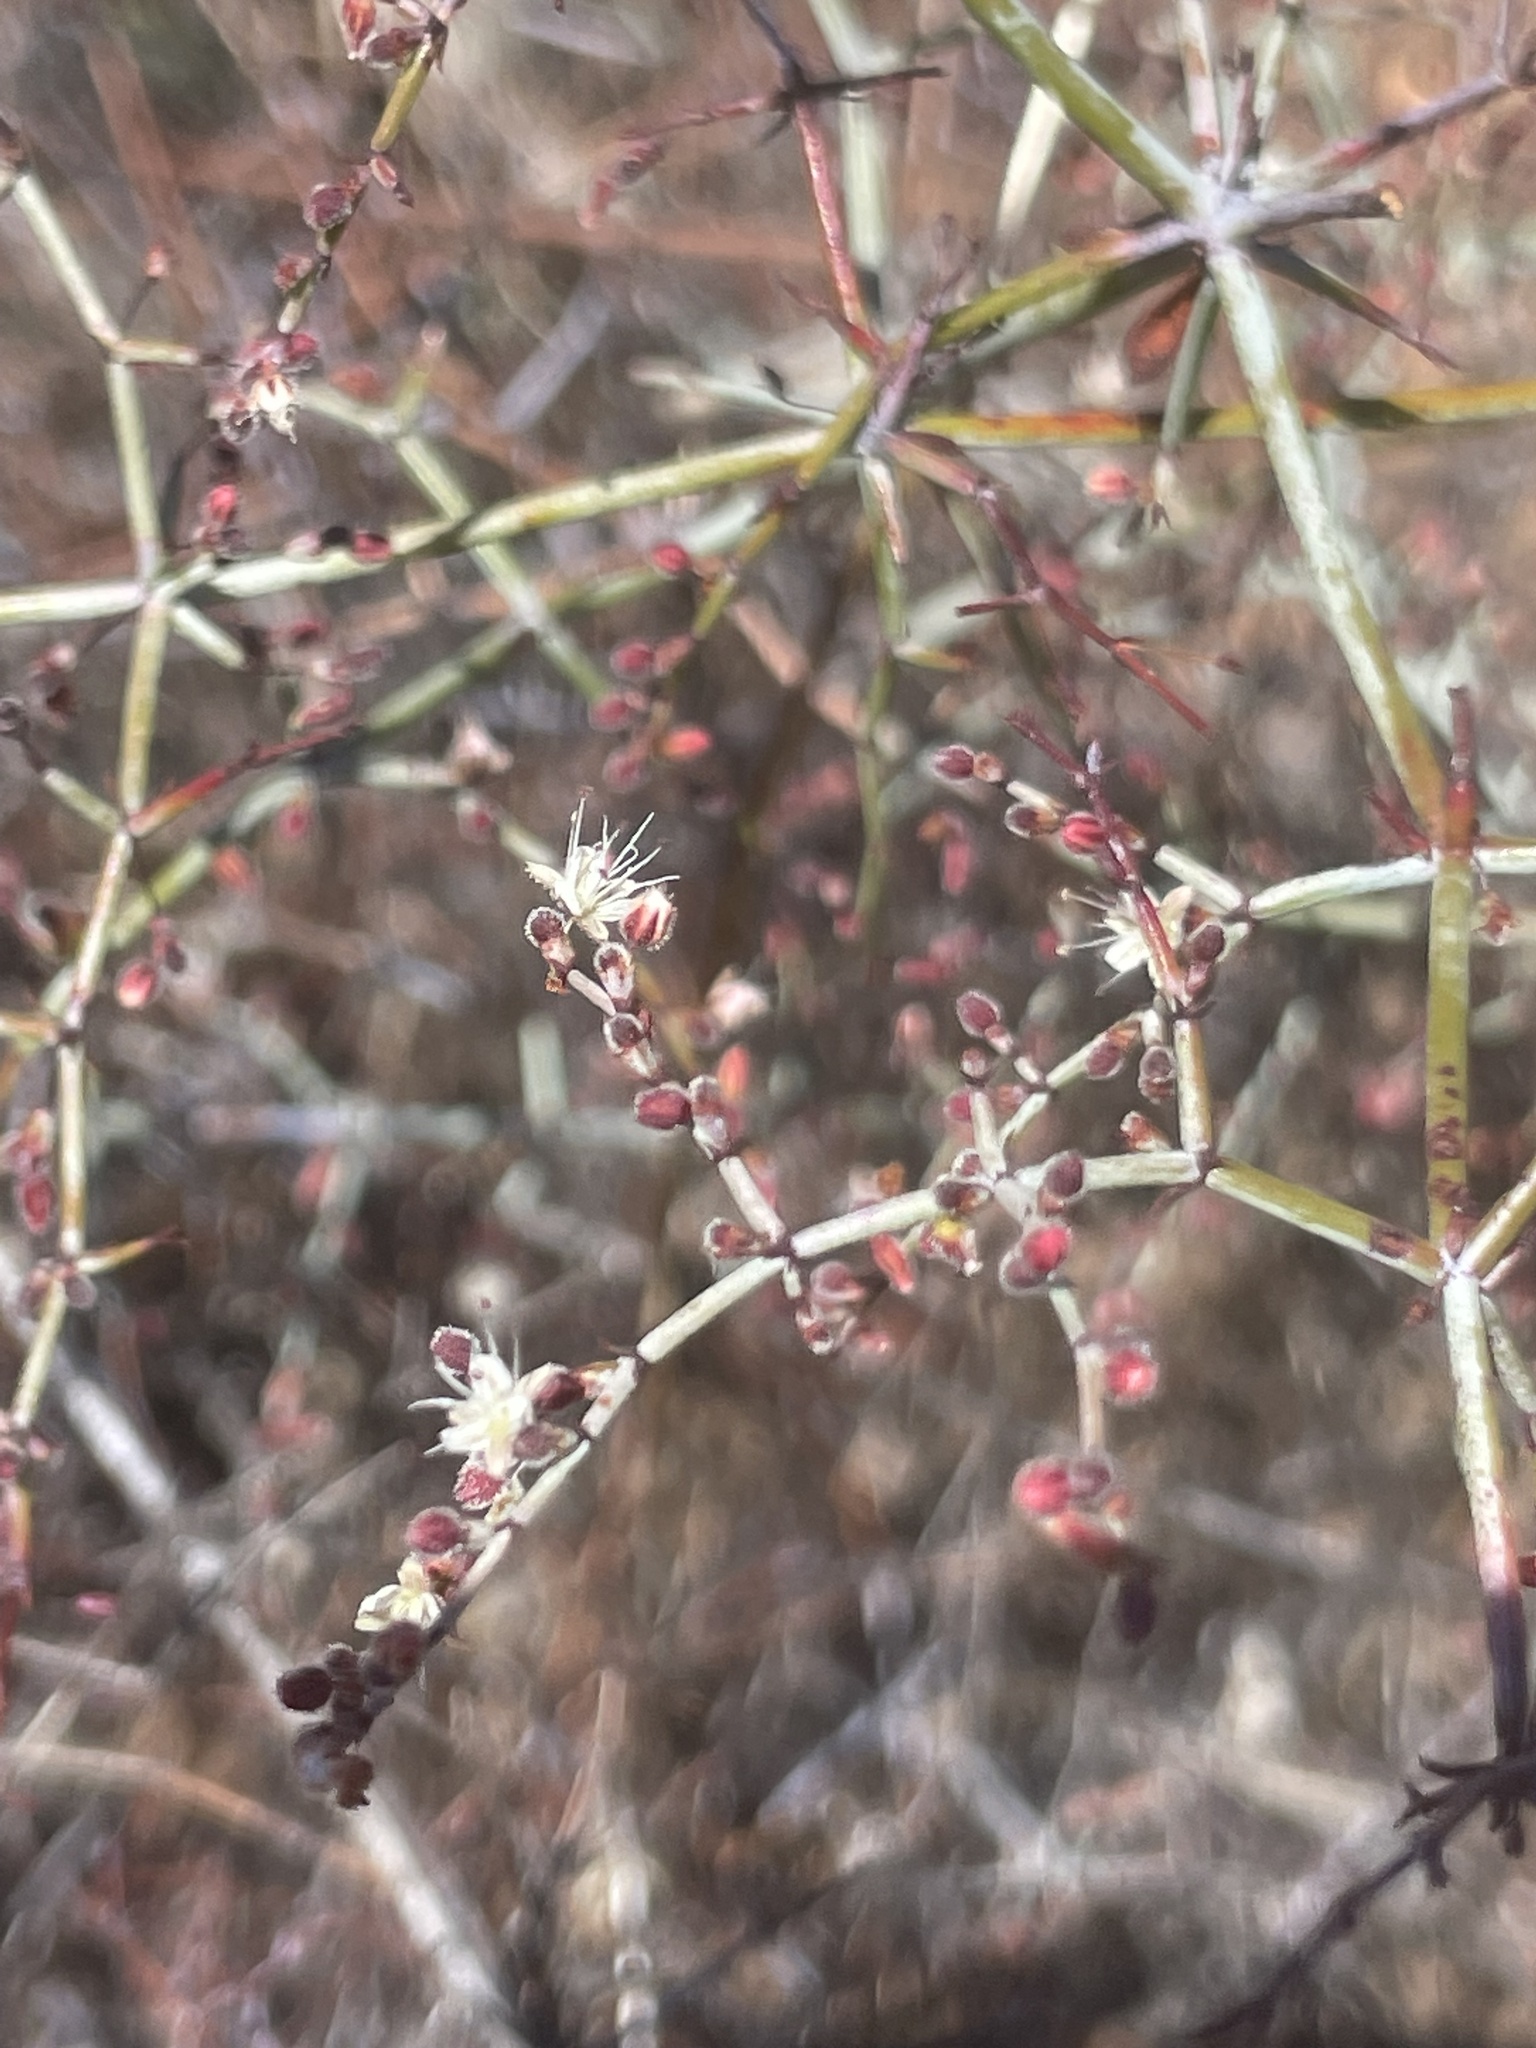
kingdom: Plantae
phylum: Tracheophyta
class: Magnoliopsida
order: Caryophyllales
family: Polygonaceae
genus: Eriogonum
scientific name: Eriogonum scalare
